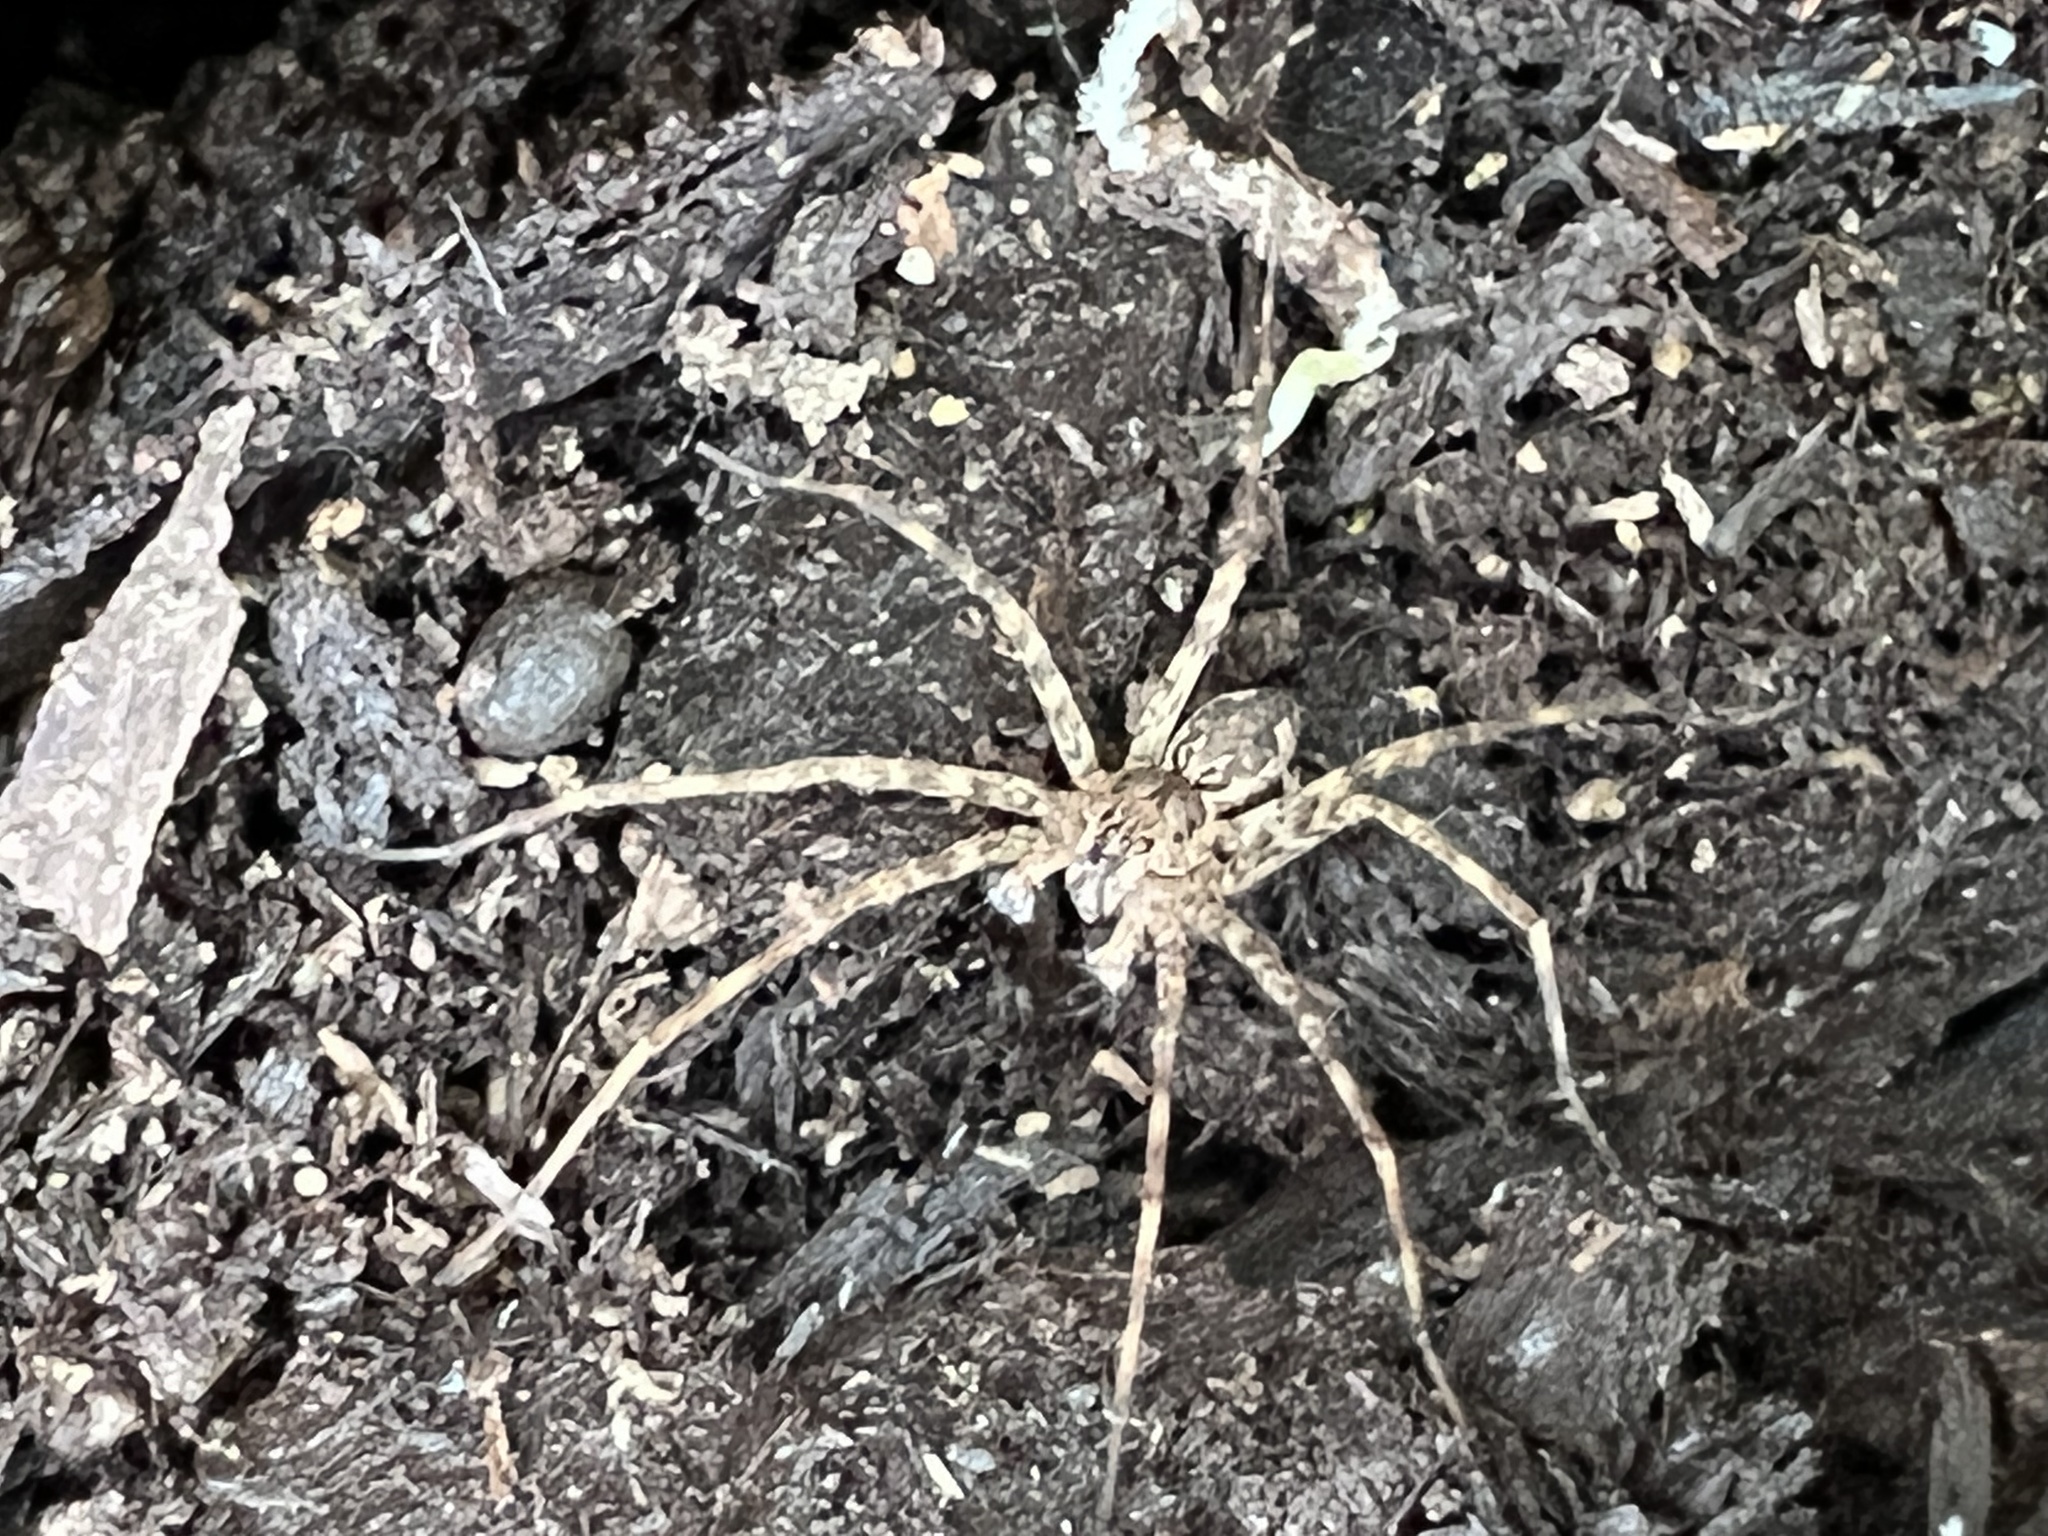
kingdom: Animalia
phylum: Arthropoda
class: Arachnida
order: Araneae
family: Pisauridae
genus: Dolomedes
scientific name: Dolomedes tenebrosus
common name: Dark fishing spider
